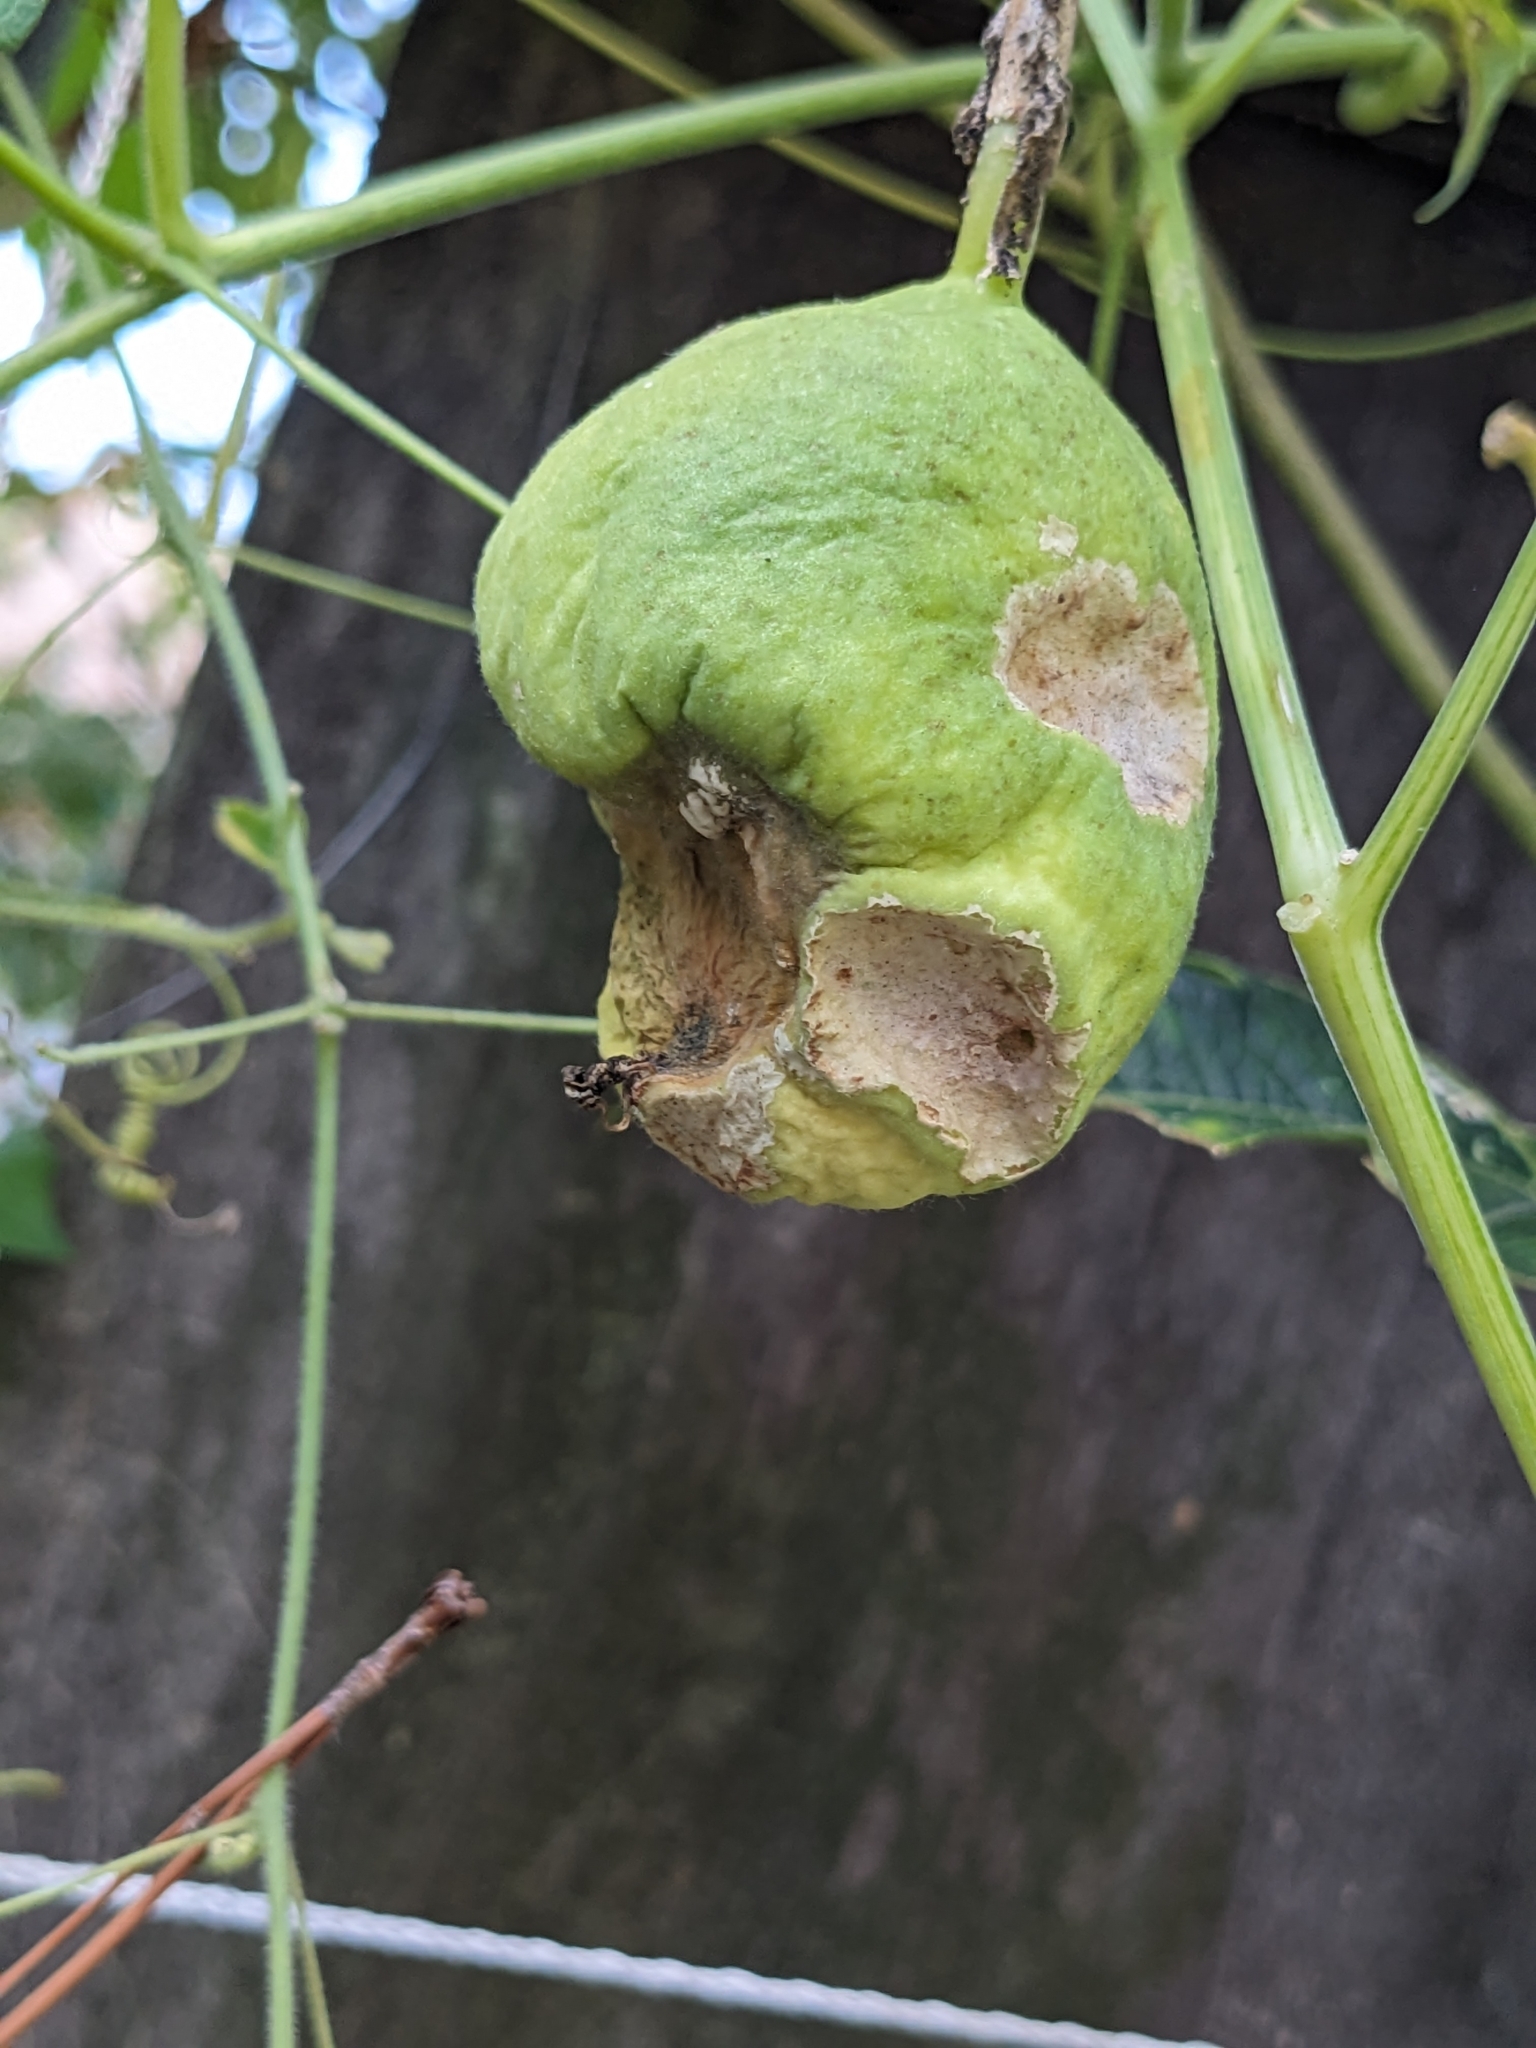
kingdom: Animalia
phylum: Arthropoda
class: Insecta
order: Lepidoptera
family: Nymphalidae
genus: Dione
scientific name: Dione vanillae
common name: Gulf fritillary
